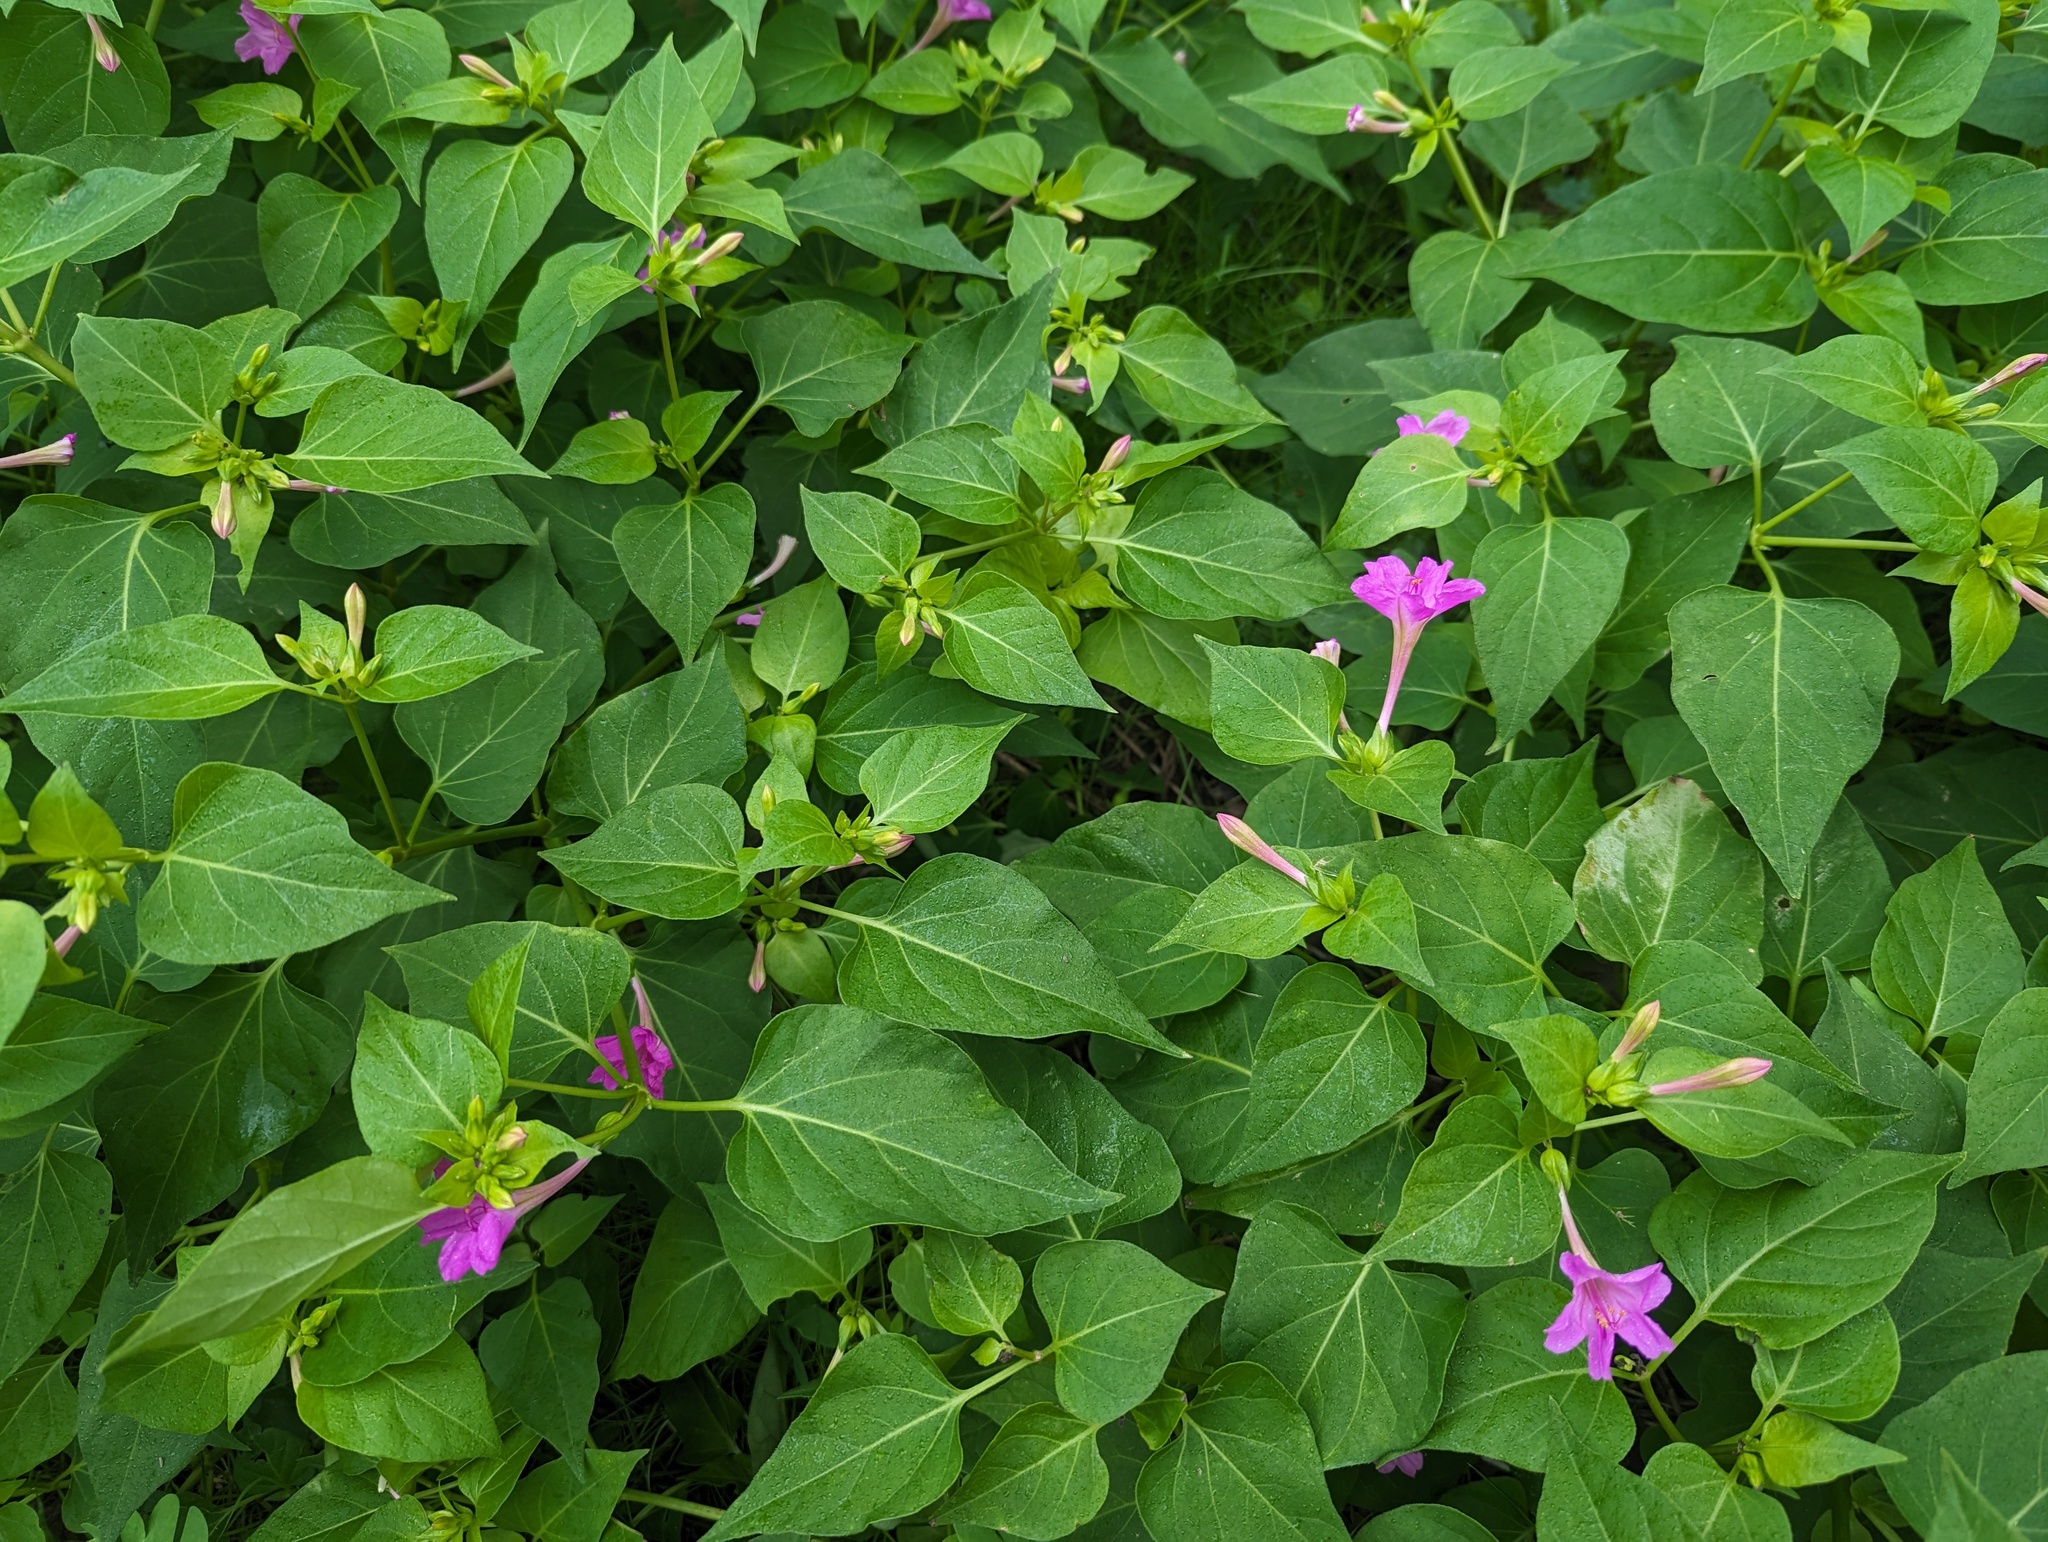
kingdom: Plantae
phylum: Tracheophyta
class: Magnoliopsida
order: Caryophyllales
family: Nyctaginaceae
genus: Mirabilis
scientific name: Mirabilis jalapa
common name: Marvel-of-peru
